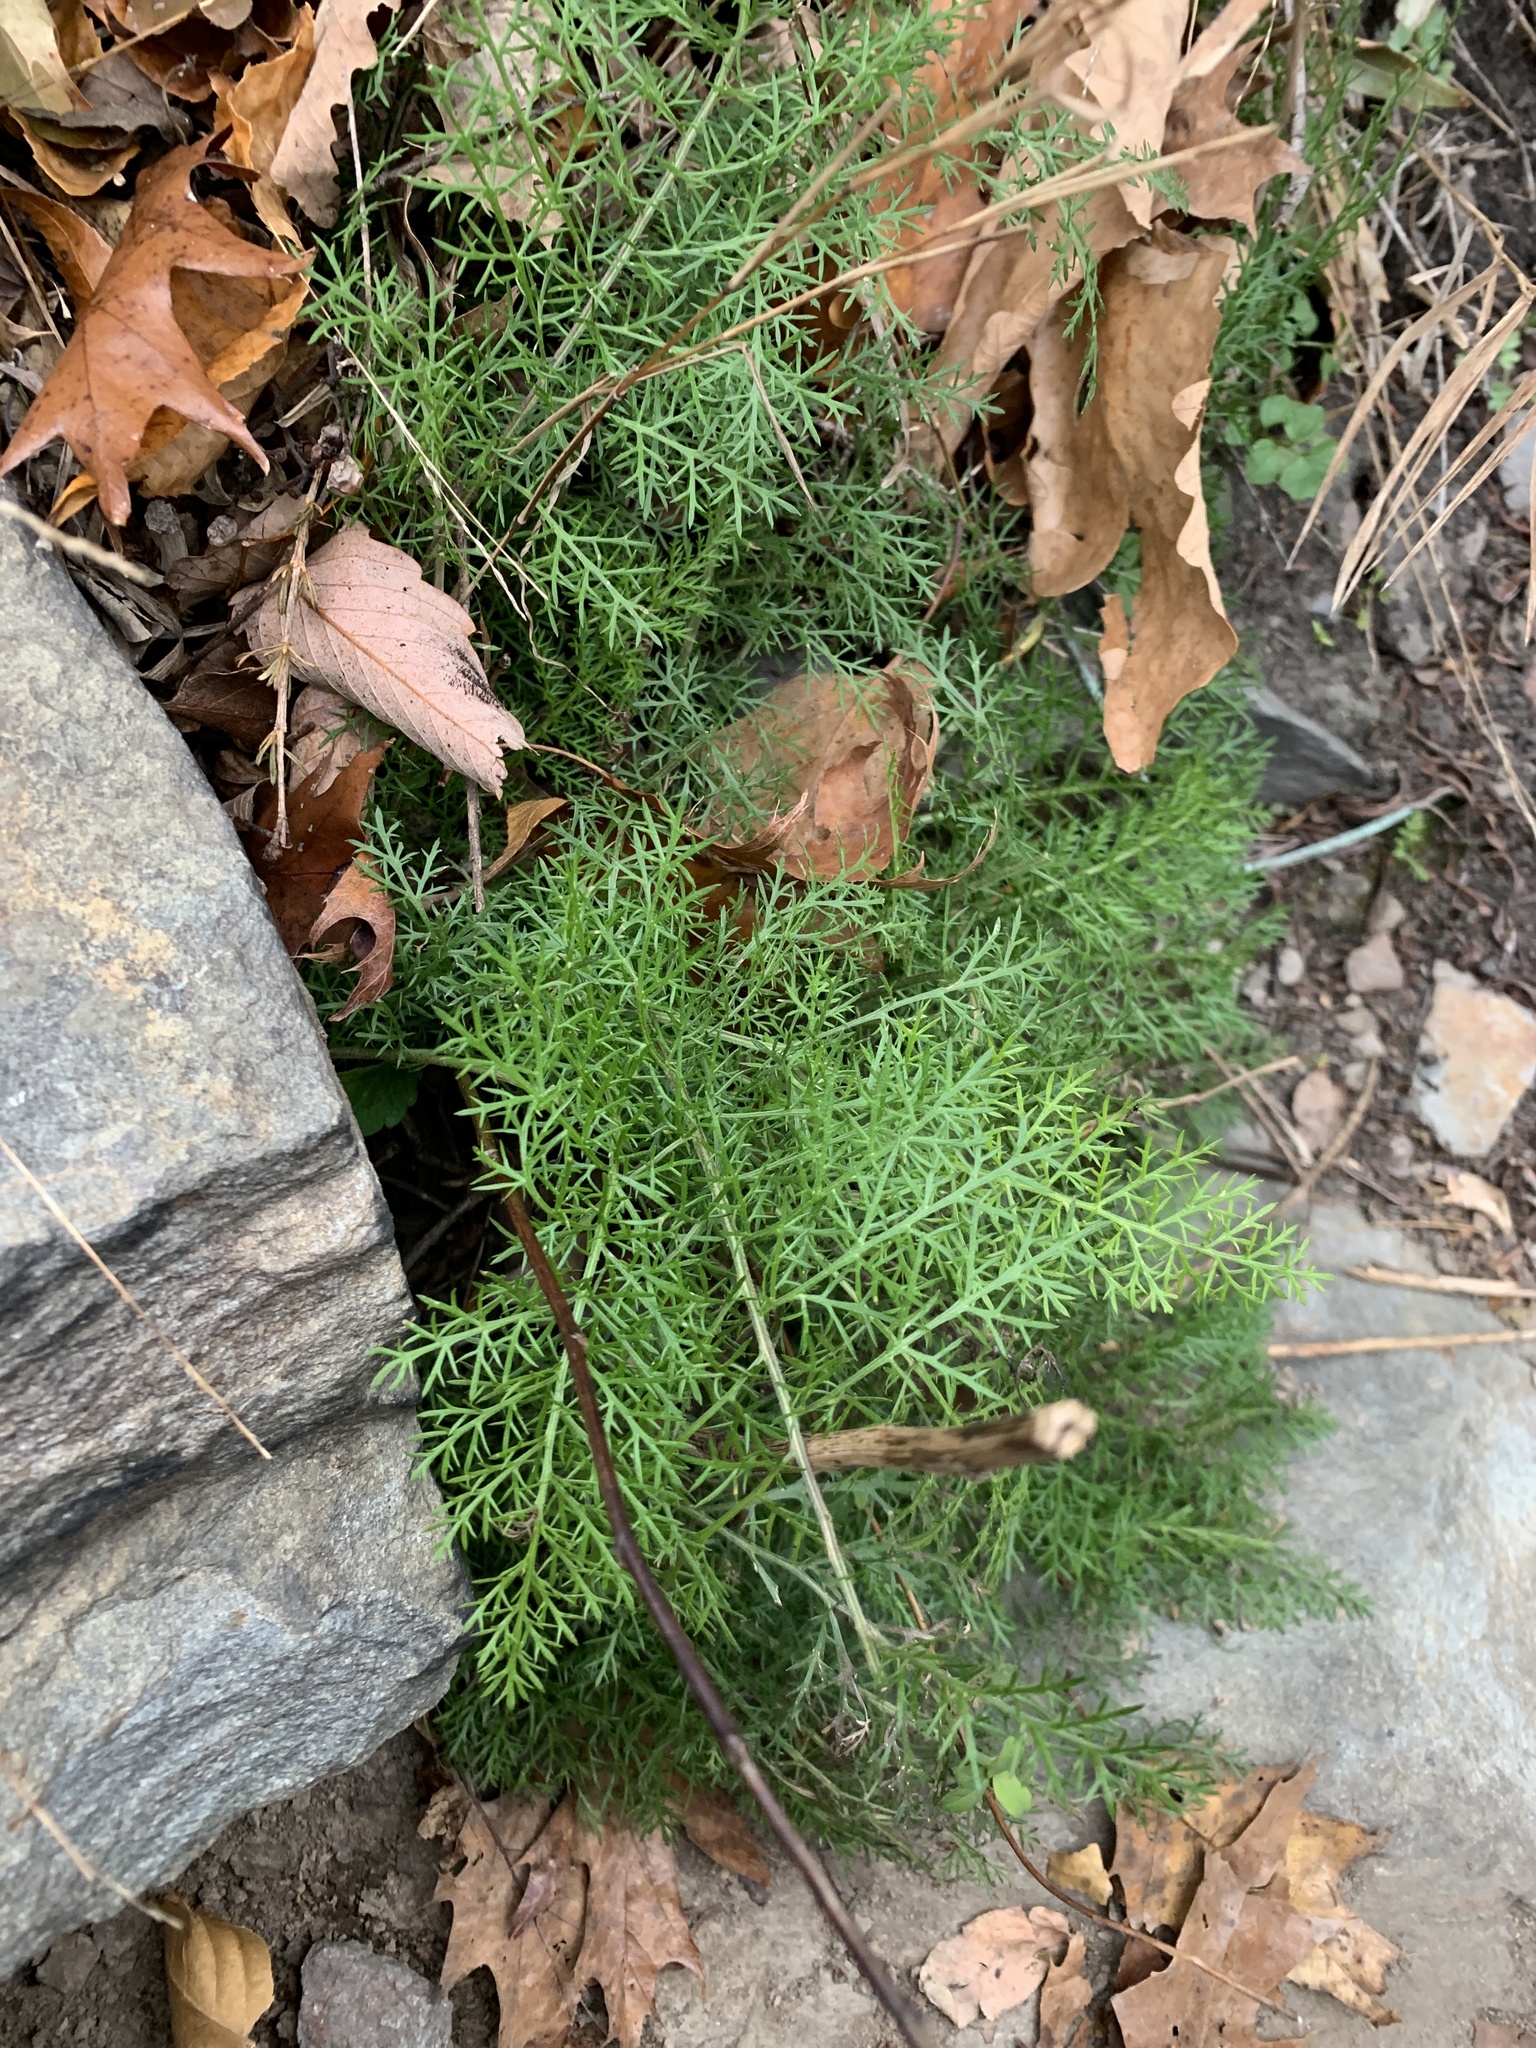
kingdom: Plantae
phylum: Tracheophyta
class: Magnoliopsida
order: Asterales
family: Asteraceae
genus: Achillea
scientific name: Achillea millefolium
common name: Yarrow
